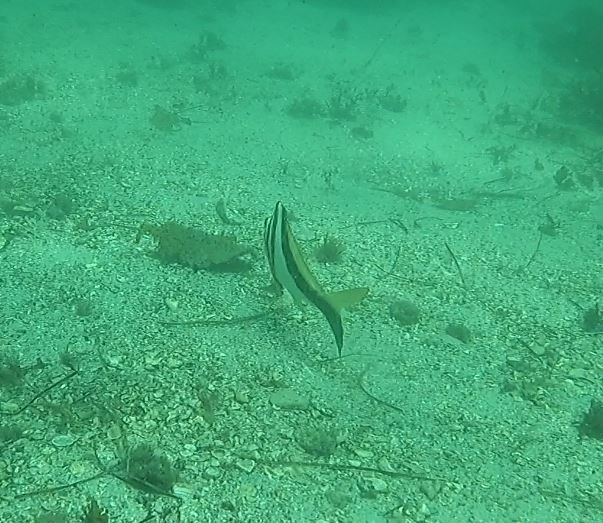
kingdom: Animalia
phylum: Chordata
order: Perciformes
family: Cheilodactylidae
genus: Cheilodactylus
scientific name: Cheilodactylus vestitus
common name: Crested morwong
